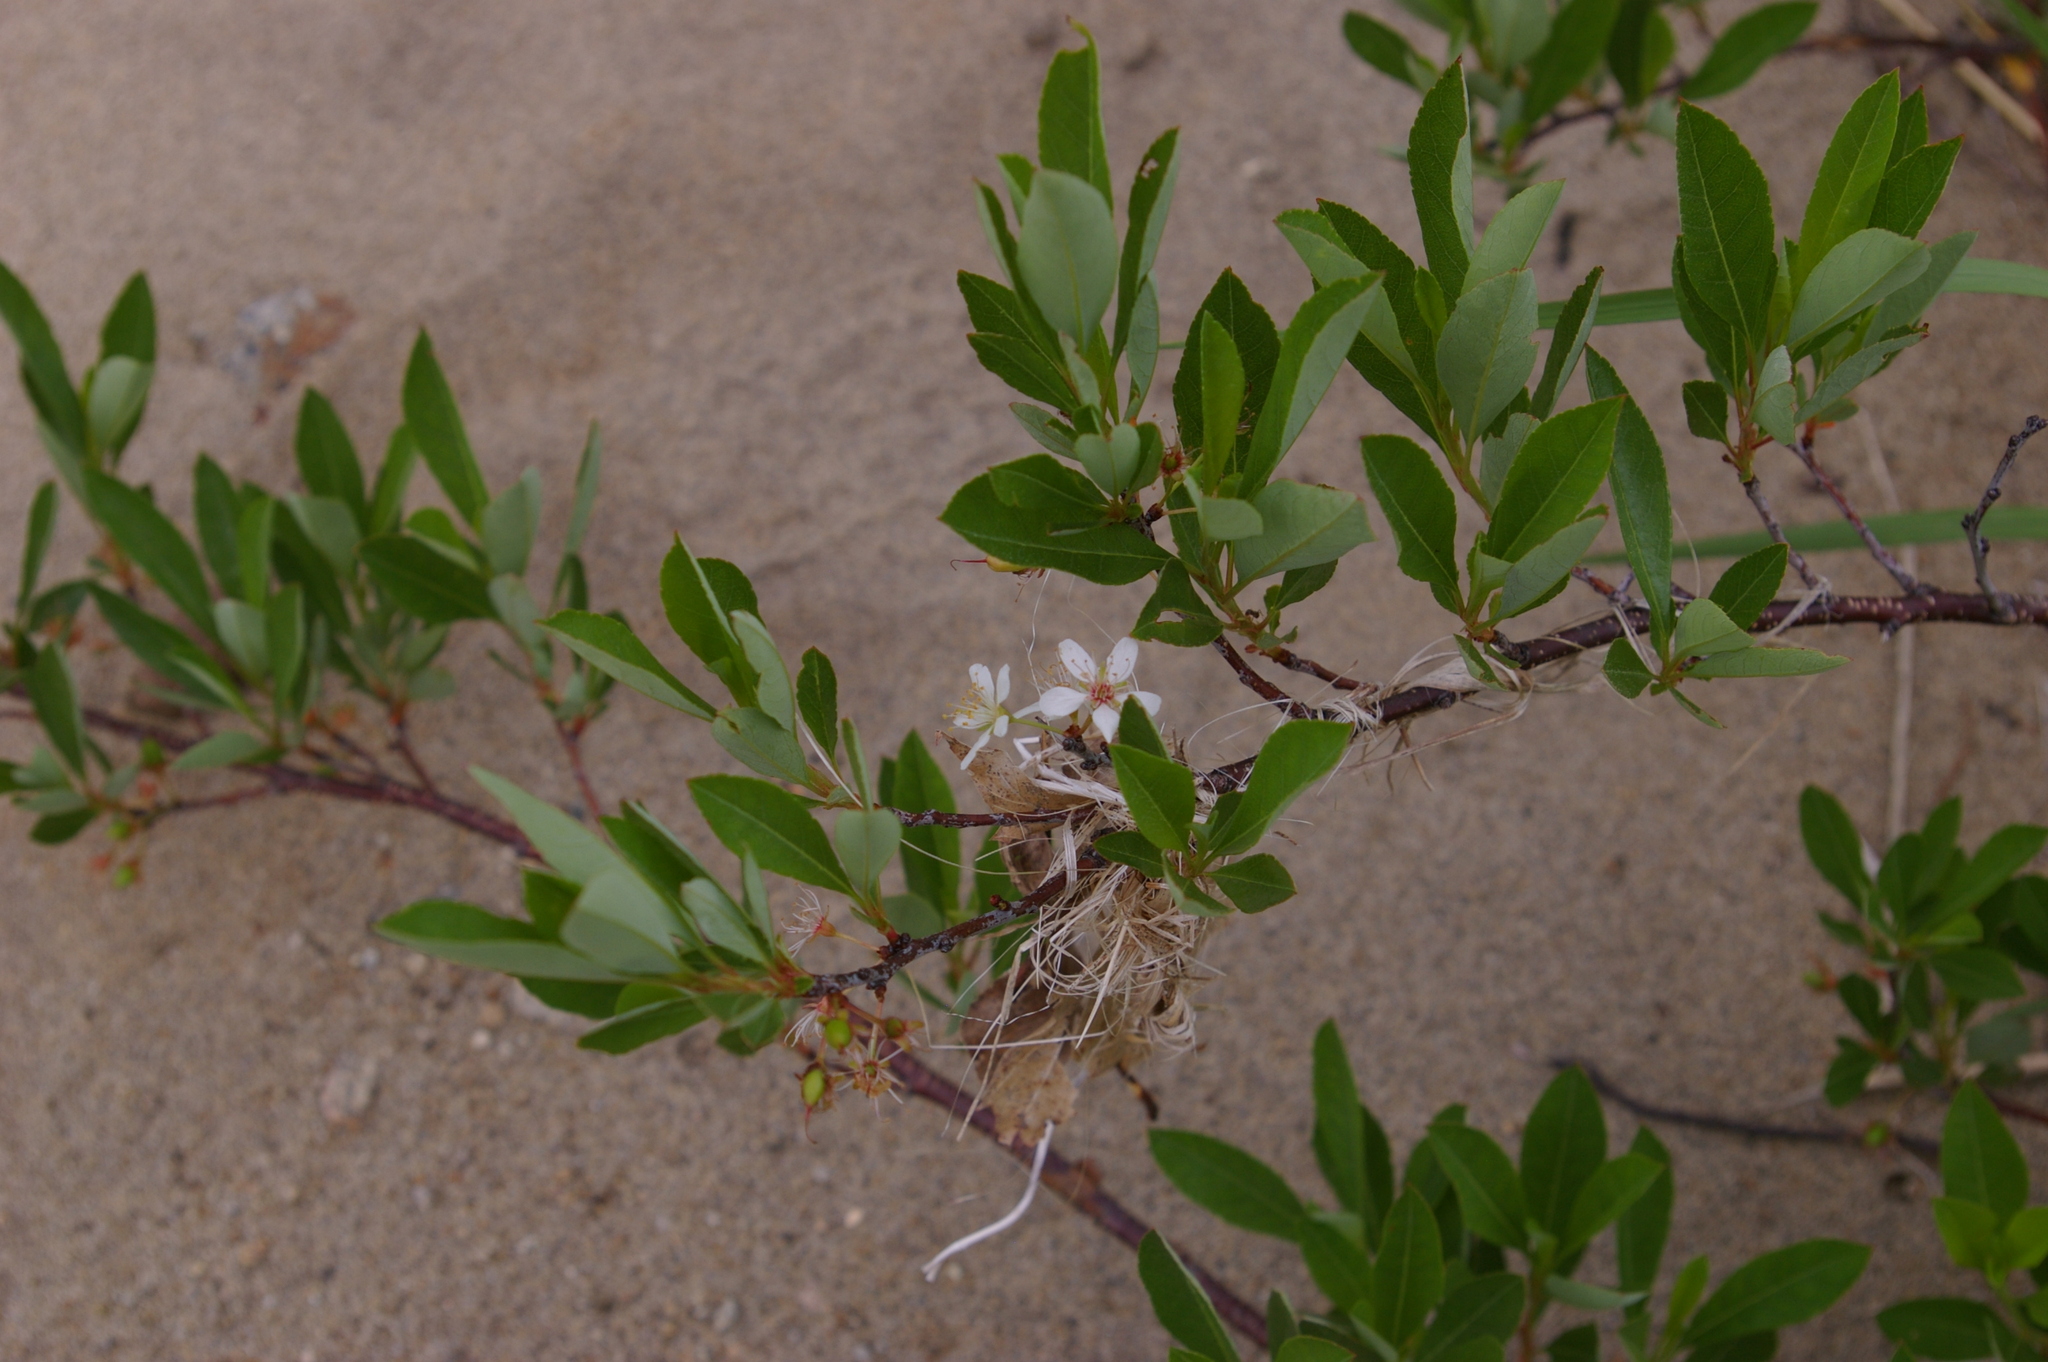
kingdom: Plantae
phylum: Tracheophyta
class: Magnoliopsida
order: Rosales
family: Rosaceae
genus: Prunus
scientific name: Prunus pumila
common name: Dwarf cherry
